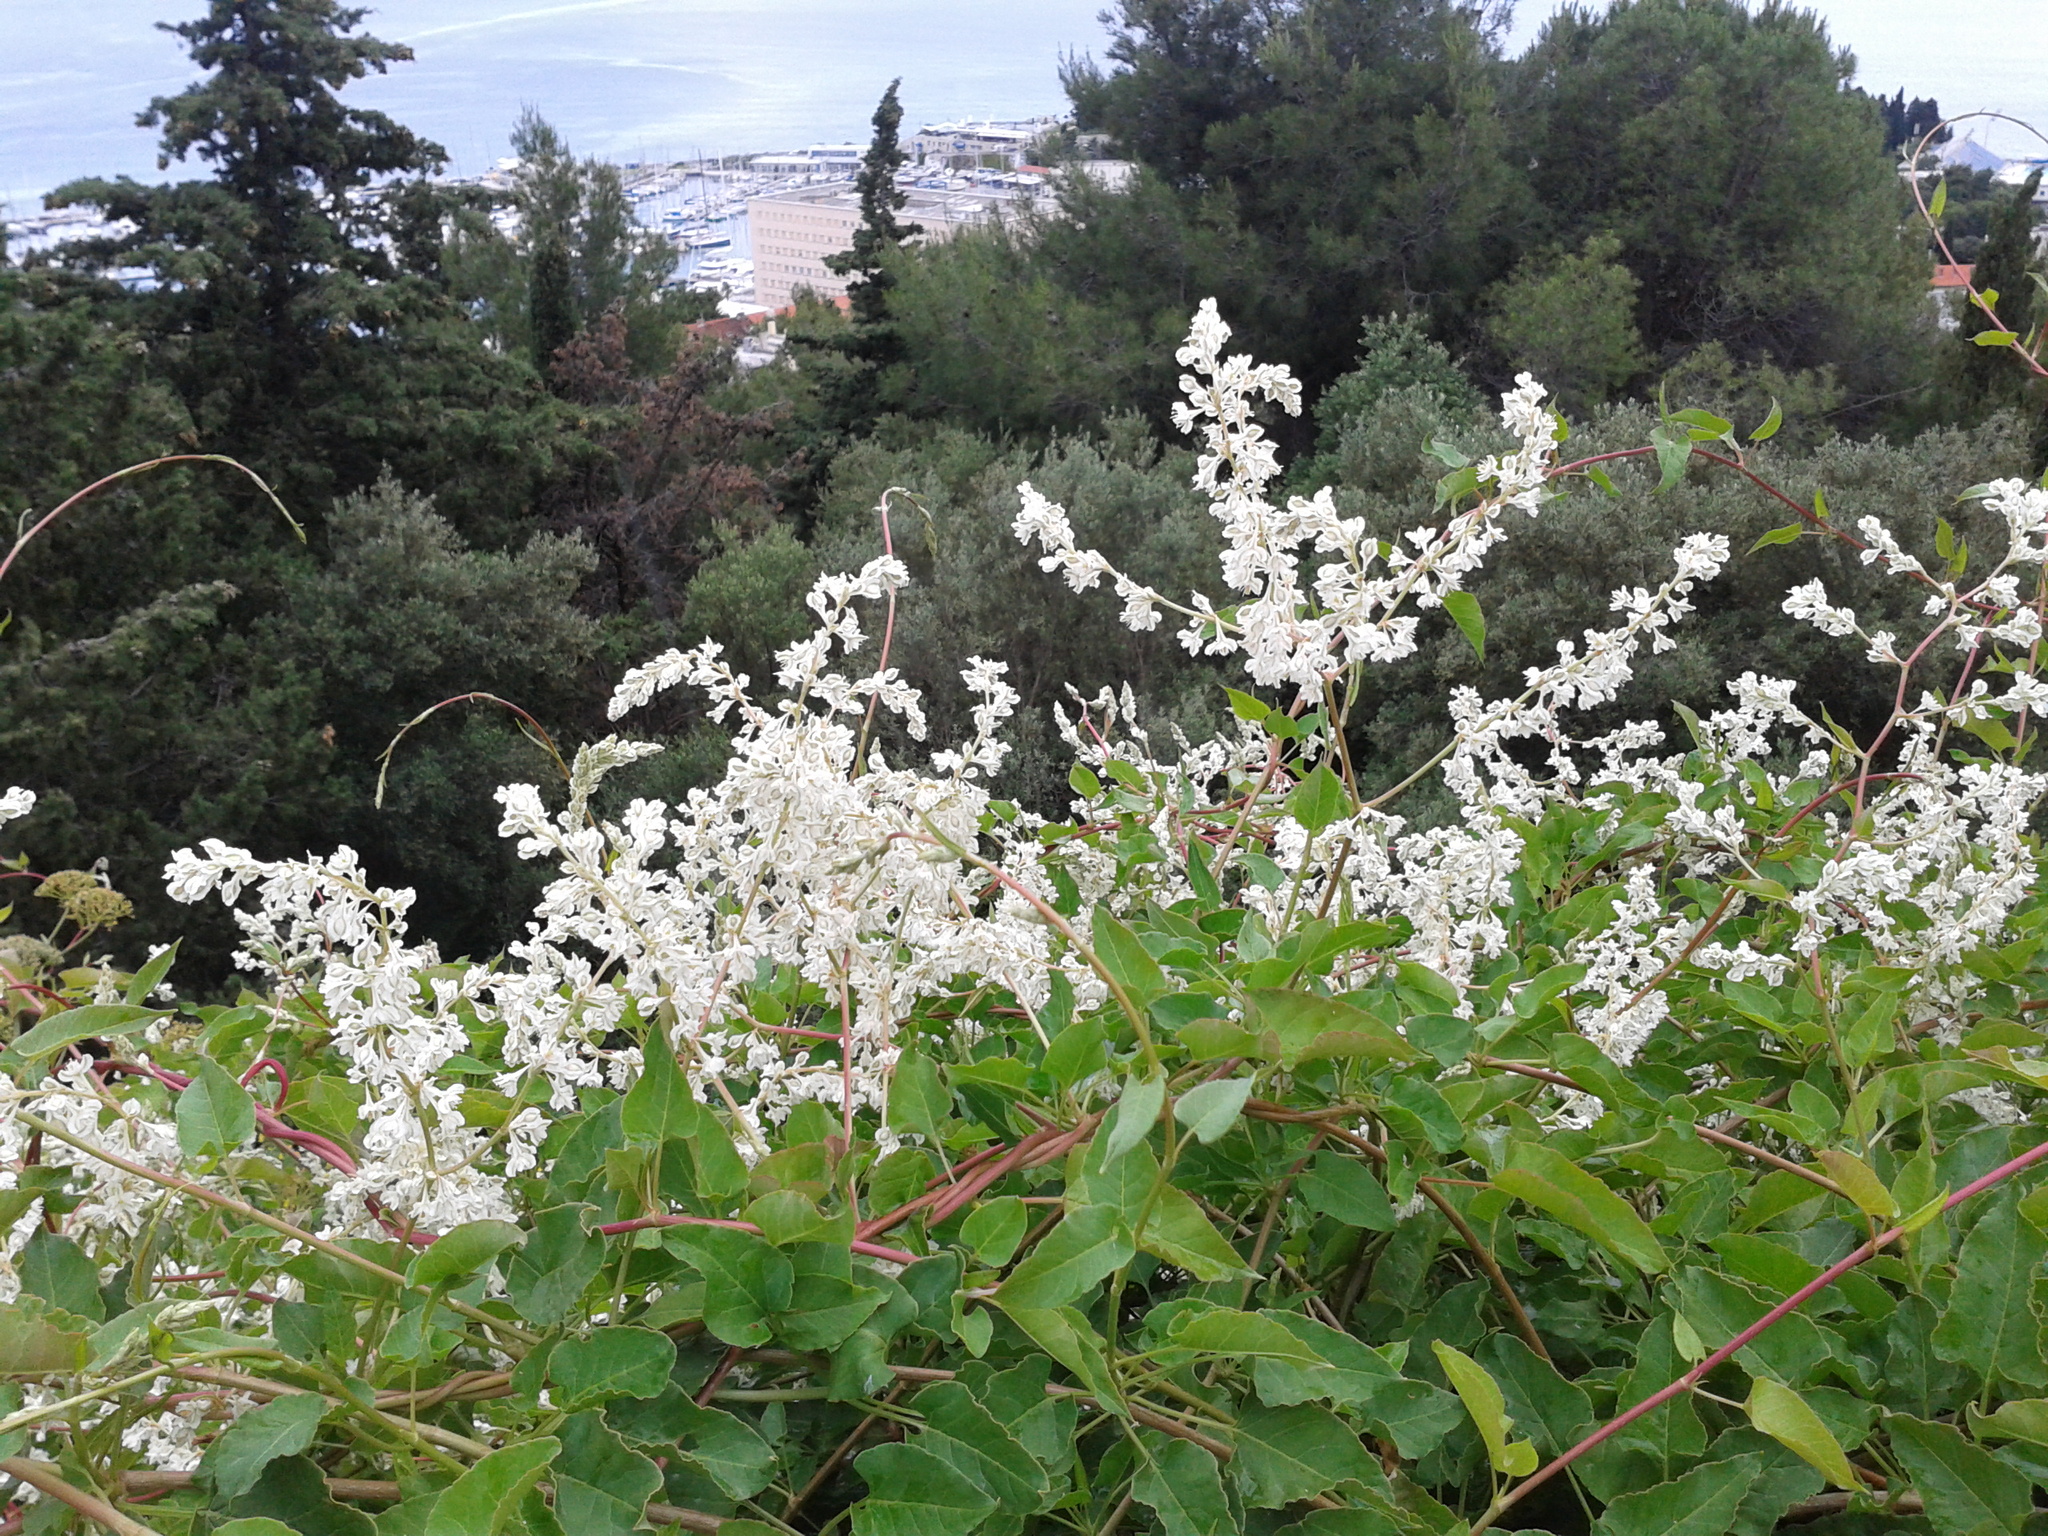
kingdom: Plantae
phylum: Tracheophyta
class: Magnoliopsida
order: Caryophyllales
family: Polygonaceae
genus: Fallopia
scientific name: Fallopia baldschuanica
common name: Russian-vine
